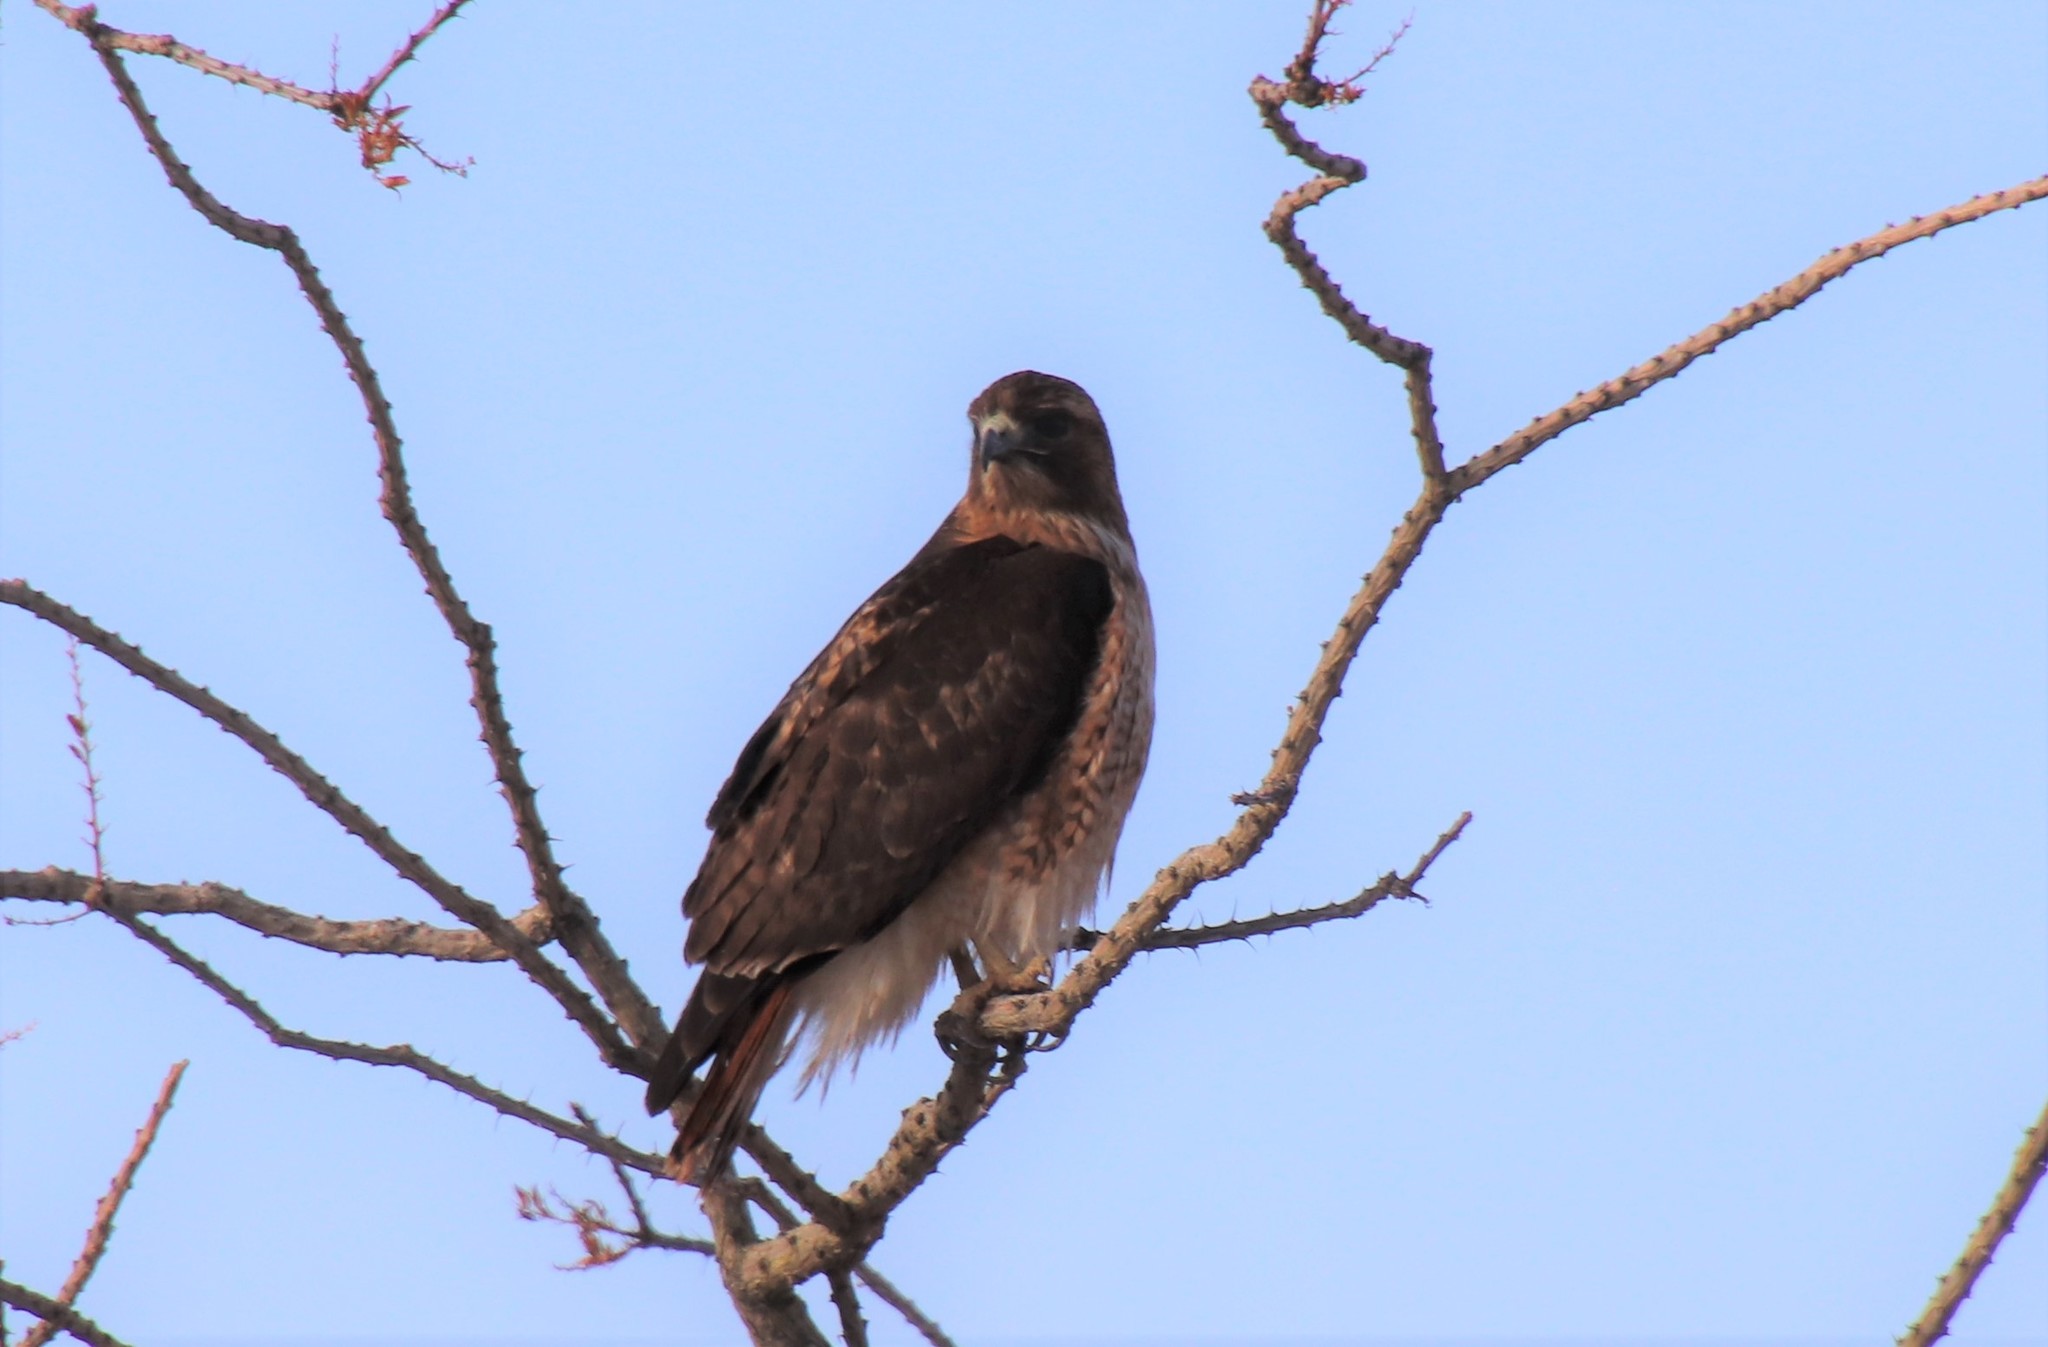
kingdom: Animalia
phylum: Chordata
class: Aves
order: Accipitriformes
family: Accipitridae
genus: Buteo
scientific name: Buteo jamaicensis
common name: Red-tailed hawk
